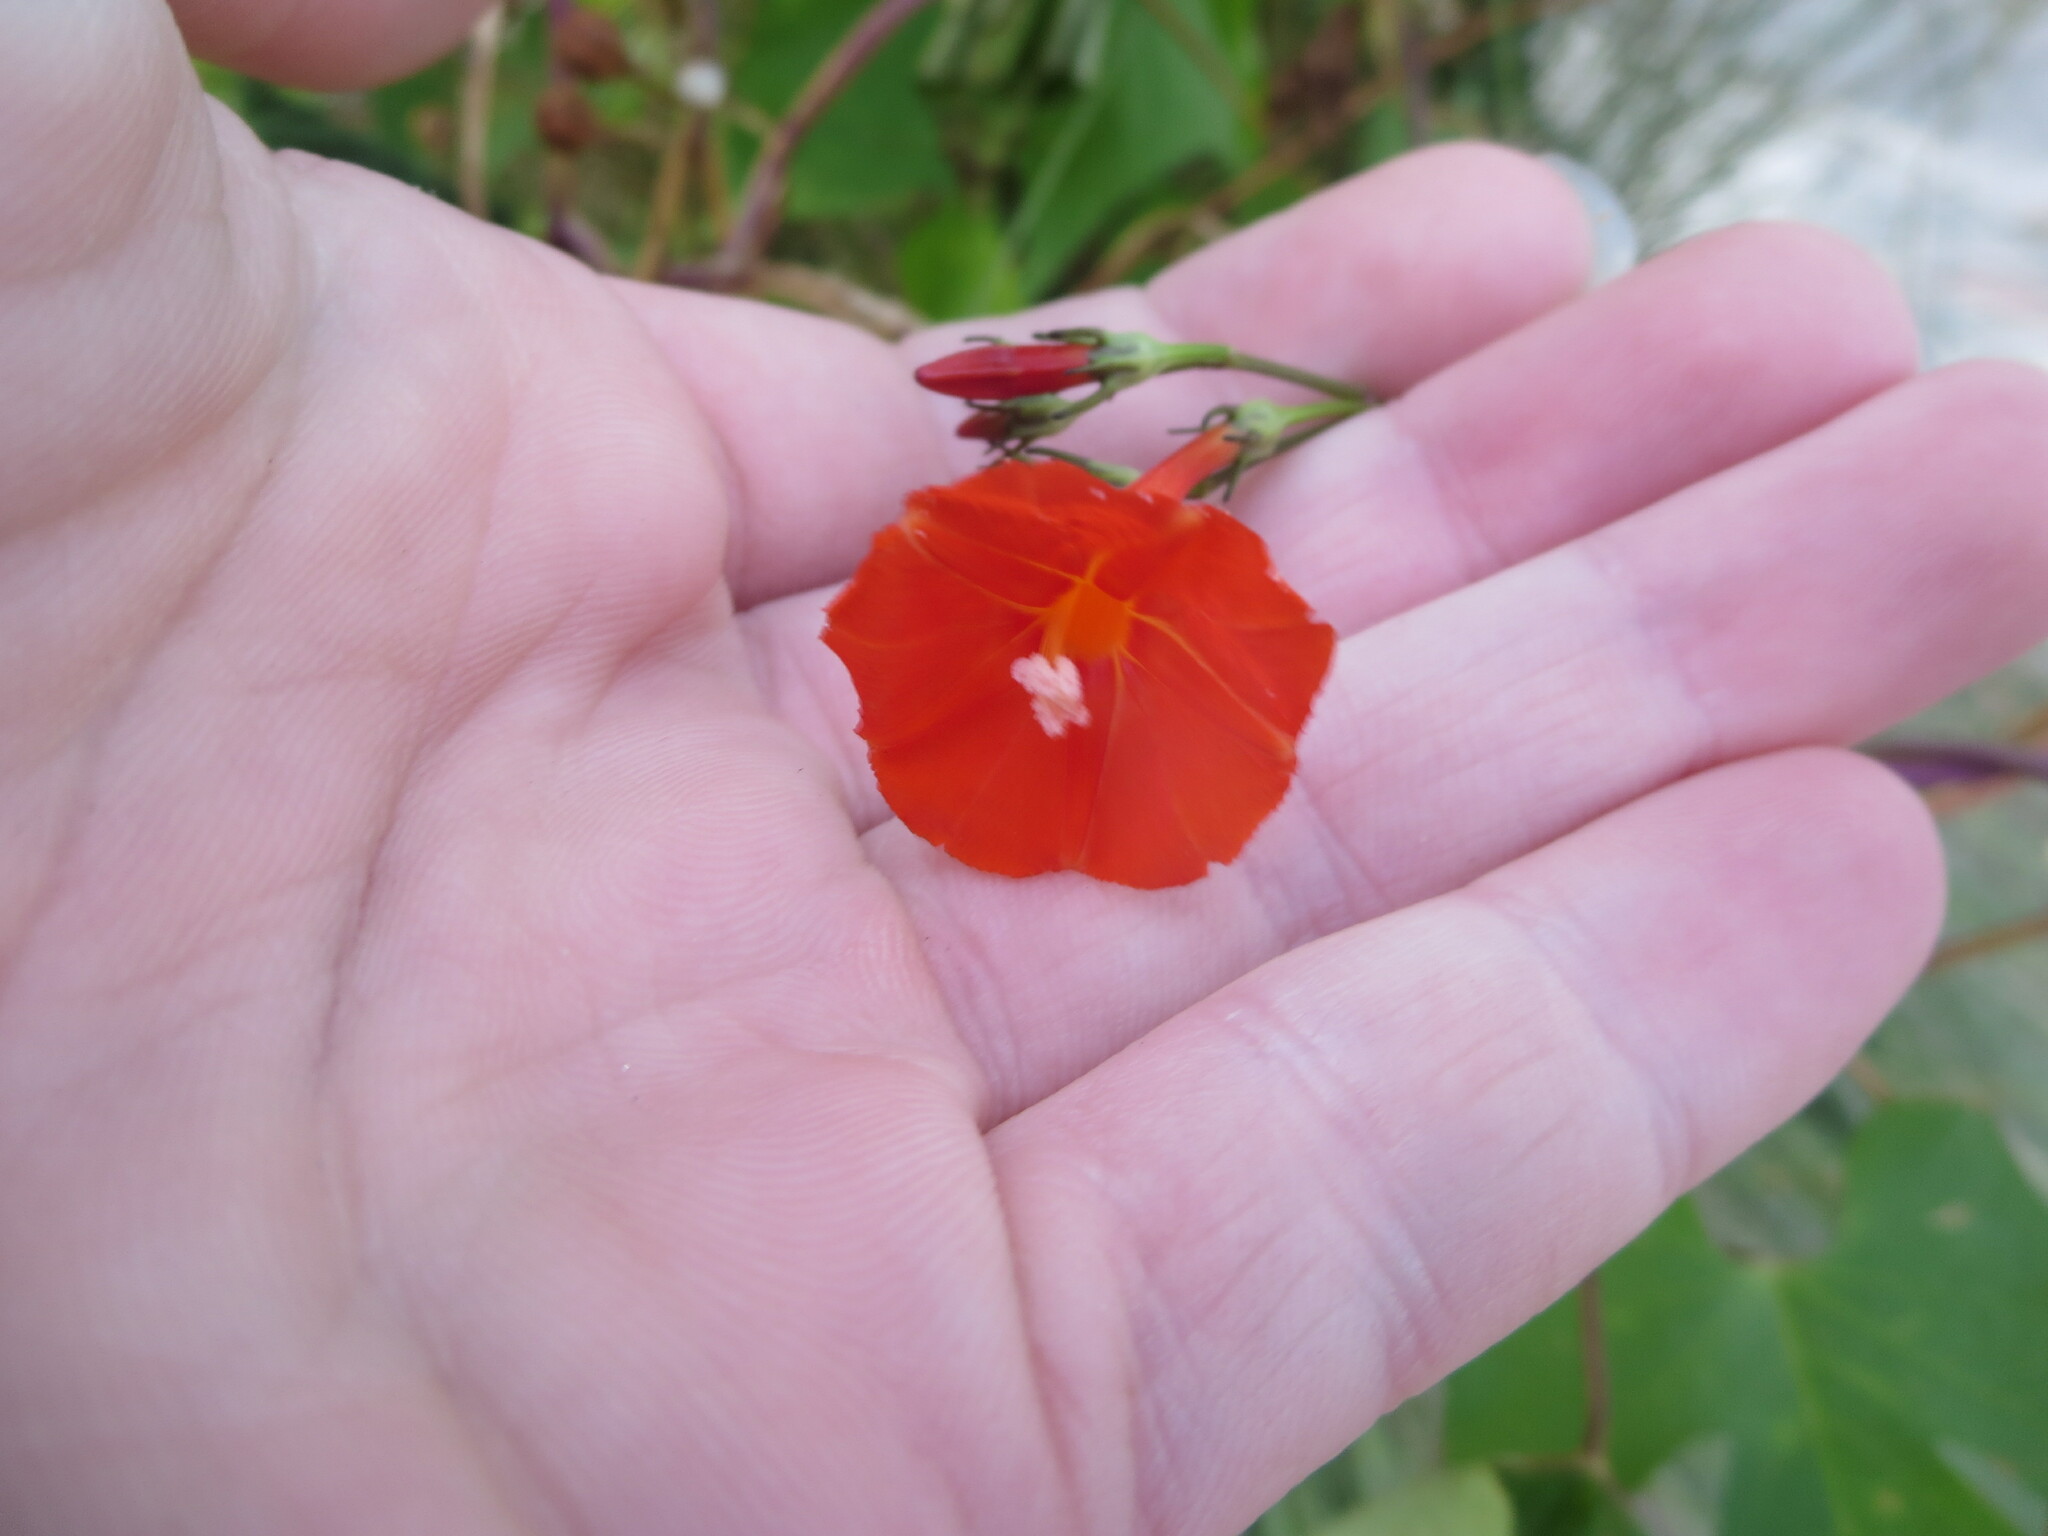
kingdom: Plantae
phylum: Tracheophyta
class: Magnoliopsida
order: Solanales
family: Convolvulaceae
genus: Ipomoea
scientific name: Ipomoea hederifolia
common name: Ivy-leaf morning-glory
